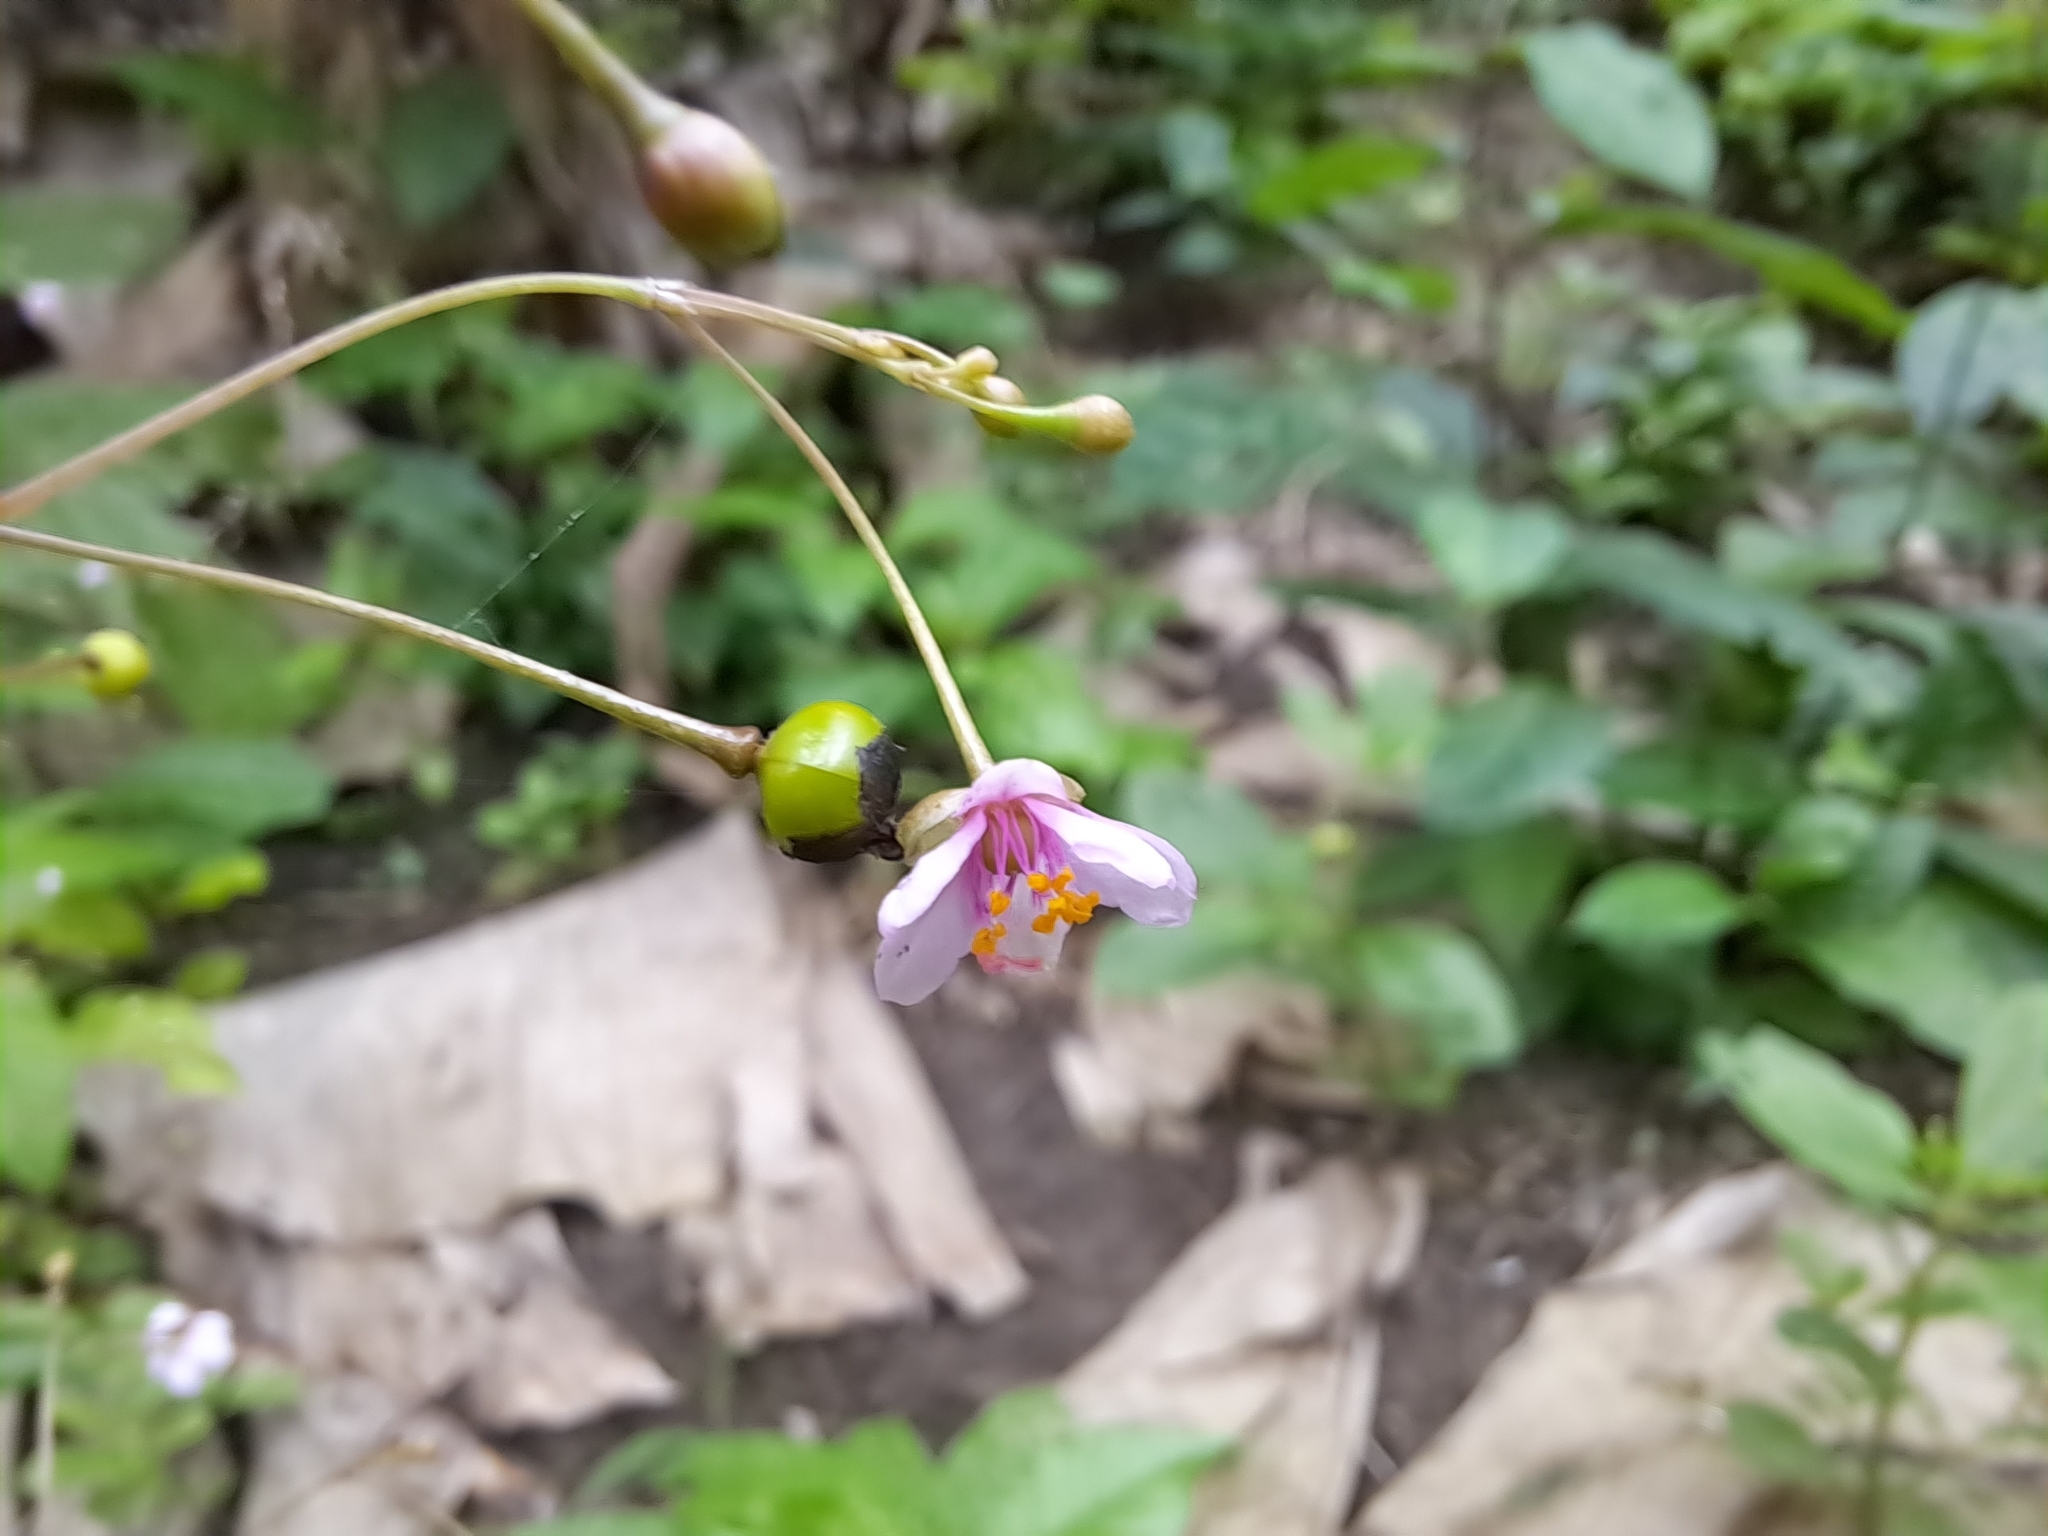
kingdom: Plantae
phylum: Tracheophyta
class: Magnoliopsida
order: Caryophyllales
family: Talinaceae
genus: Talinum
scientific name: Talinum paniculatum
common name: Jewels of opar
